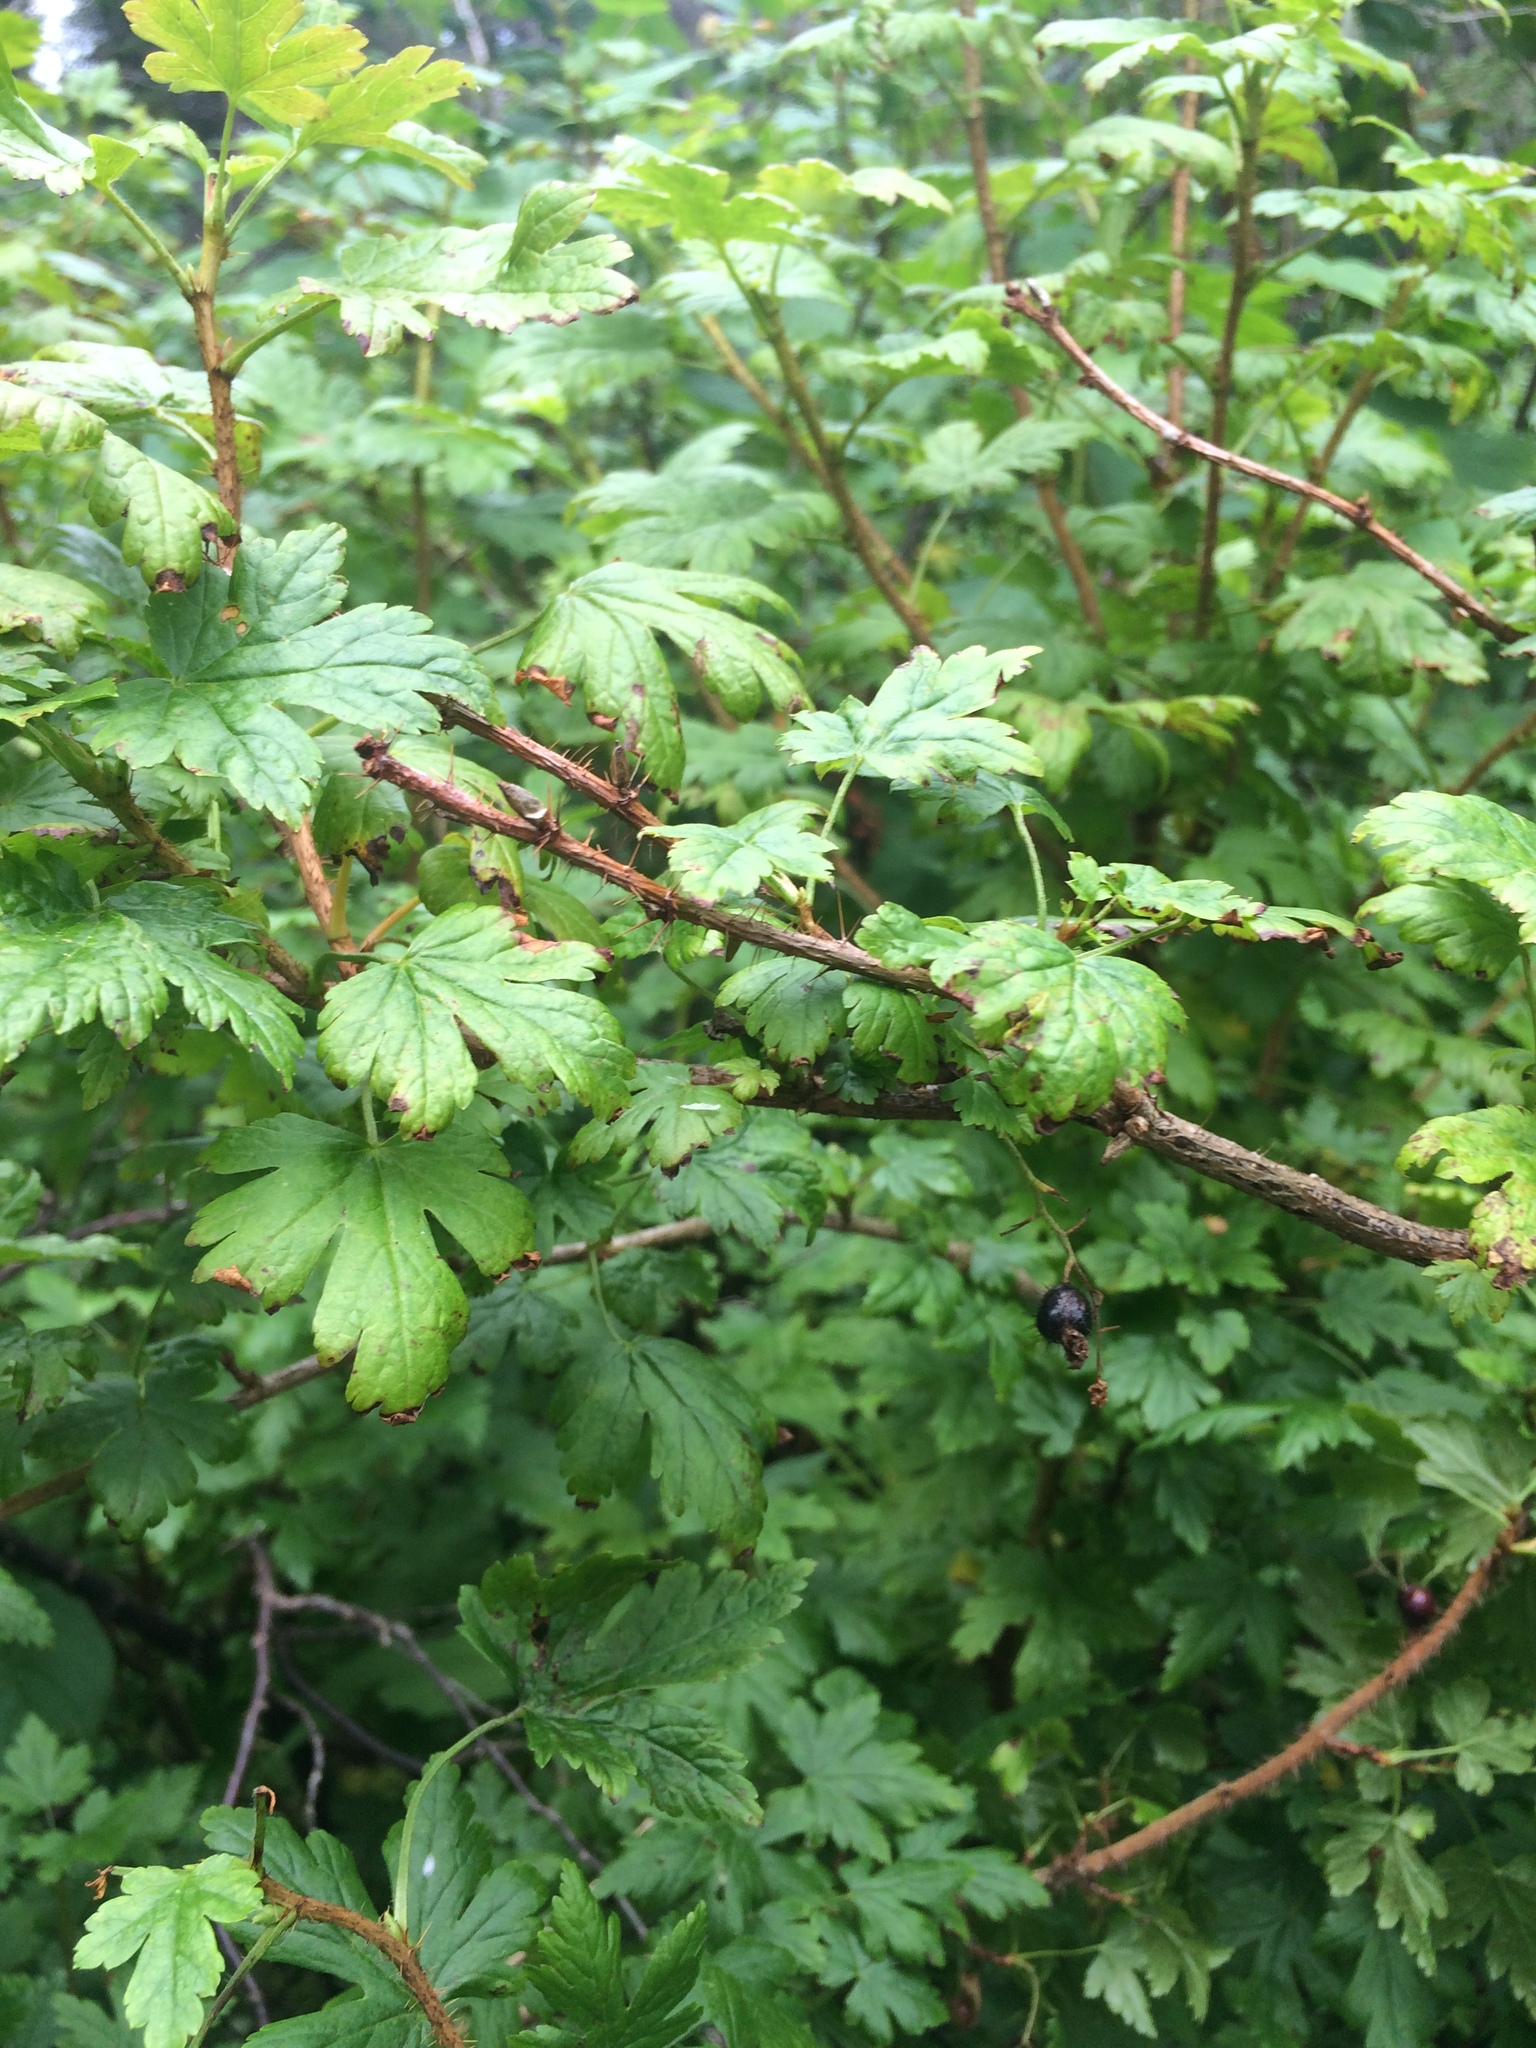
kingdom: Plantae
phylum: Tracheophyta
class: Magnoliopsida
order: Saxifragales
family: Grossulariaceae
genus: Ribes
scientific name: Ribes lacustre
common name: Black gooseberry
